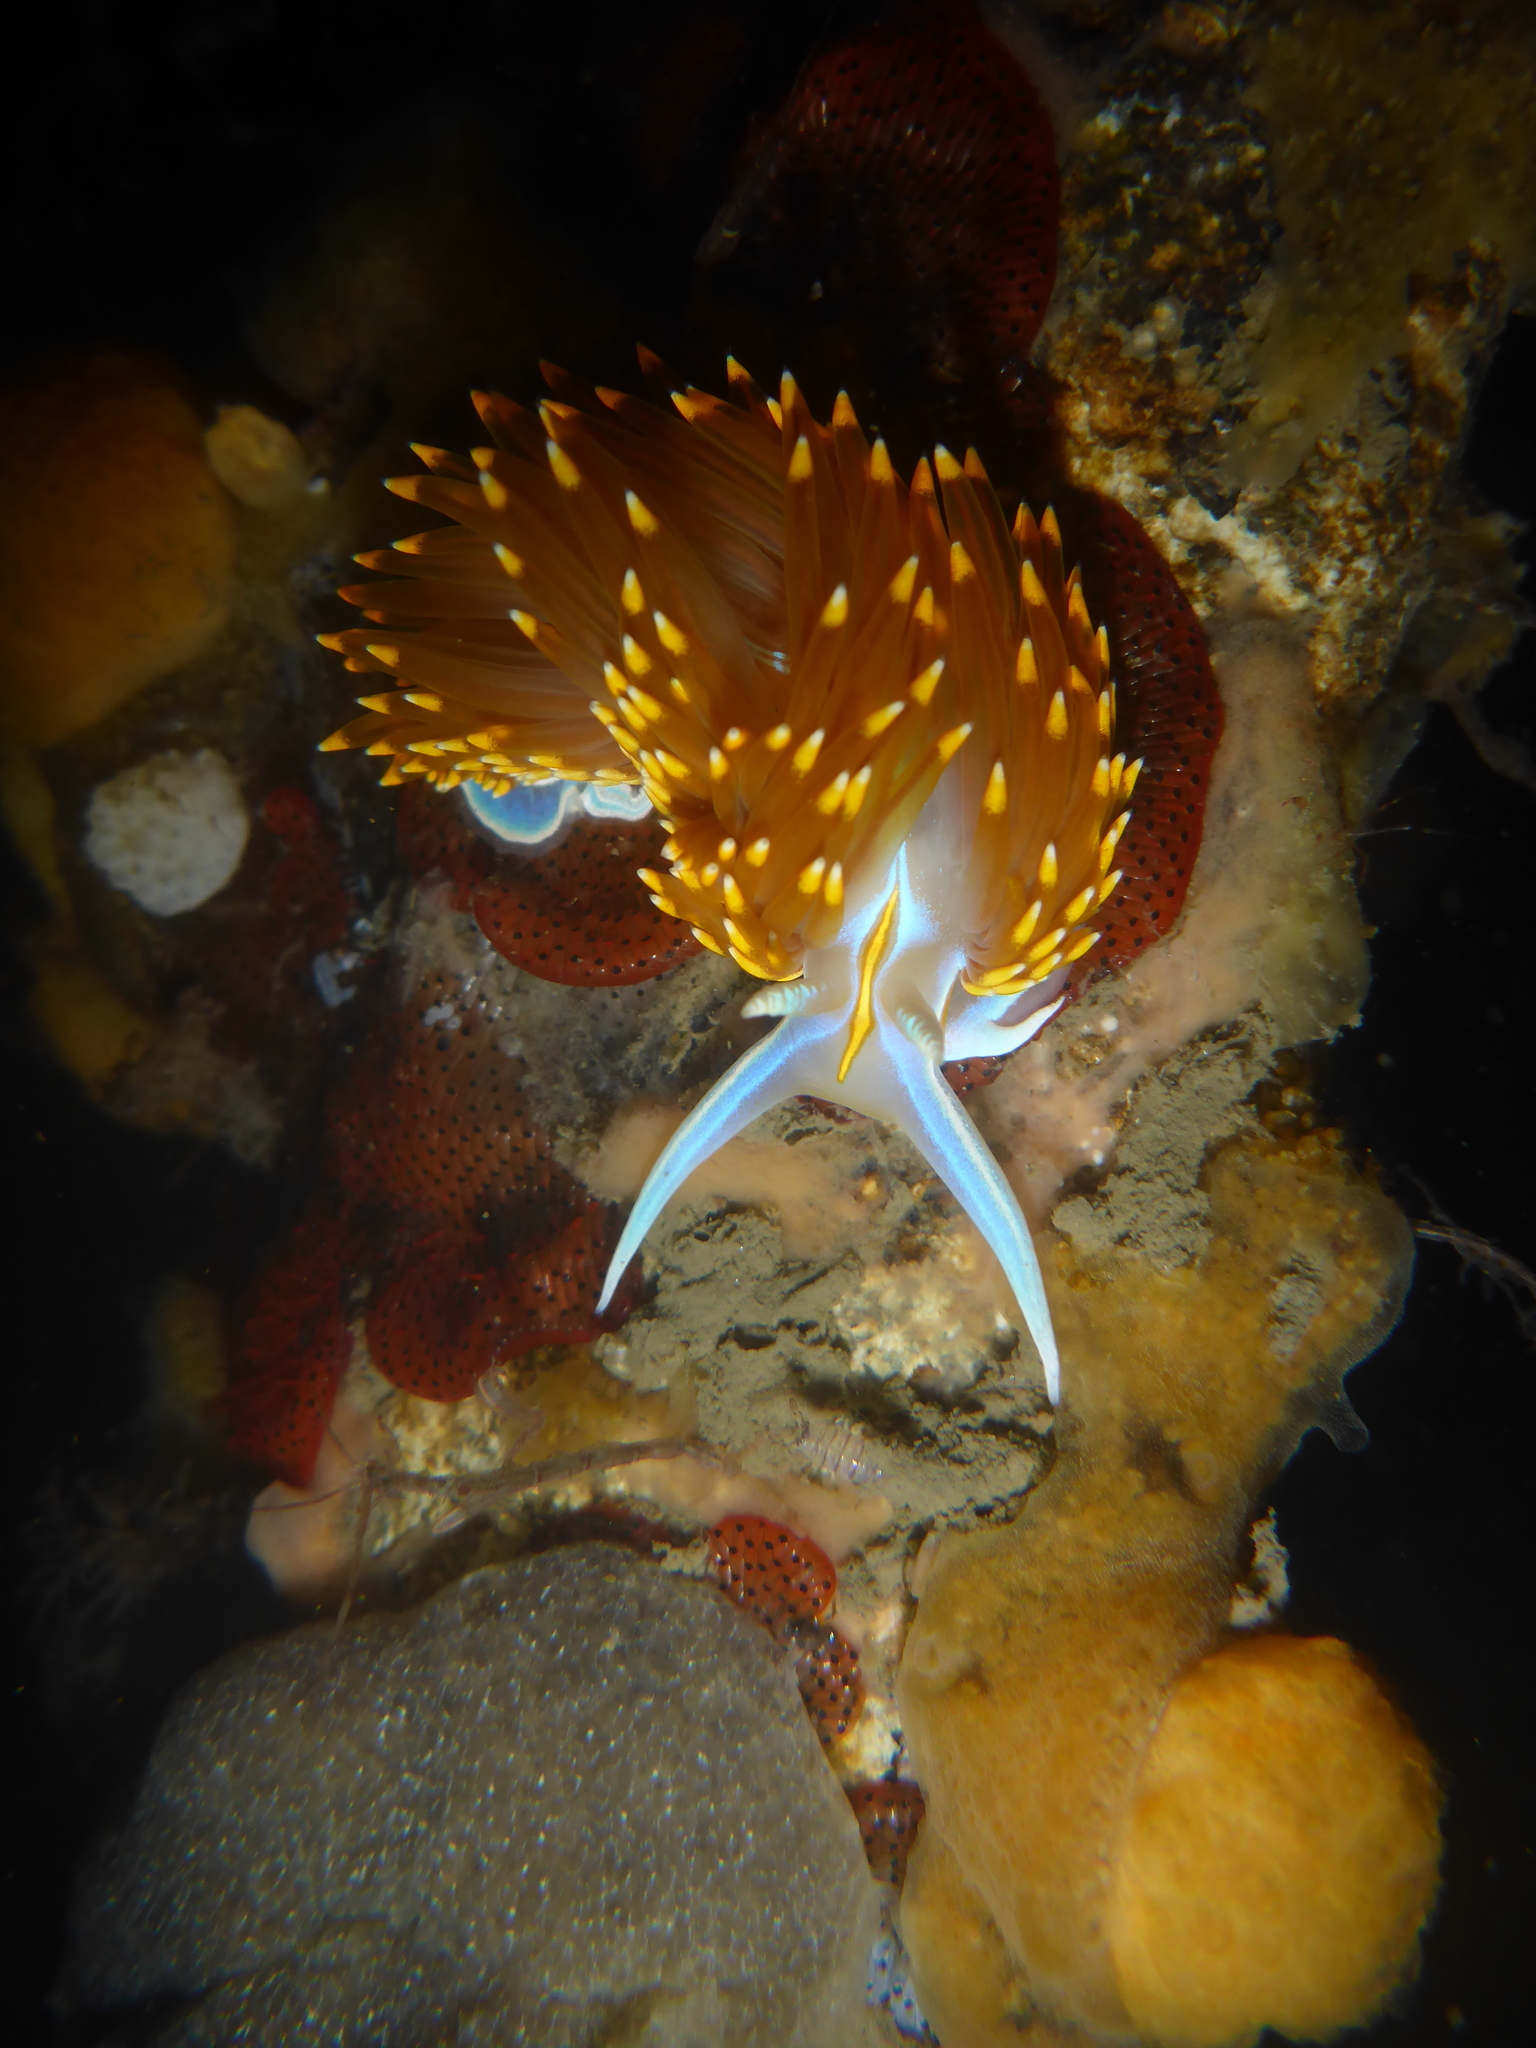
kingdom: Animalia
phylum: Mollusca
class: Gastropoda
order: Nudibranchia
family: Myrrhinidae
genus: Hermissenda
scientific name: Hermissenda opalescens
